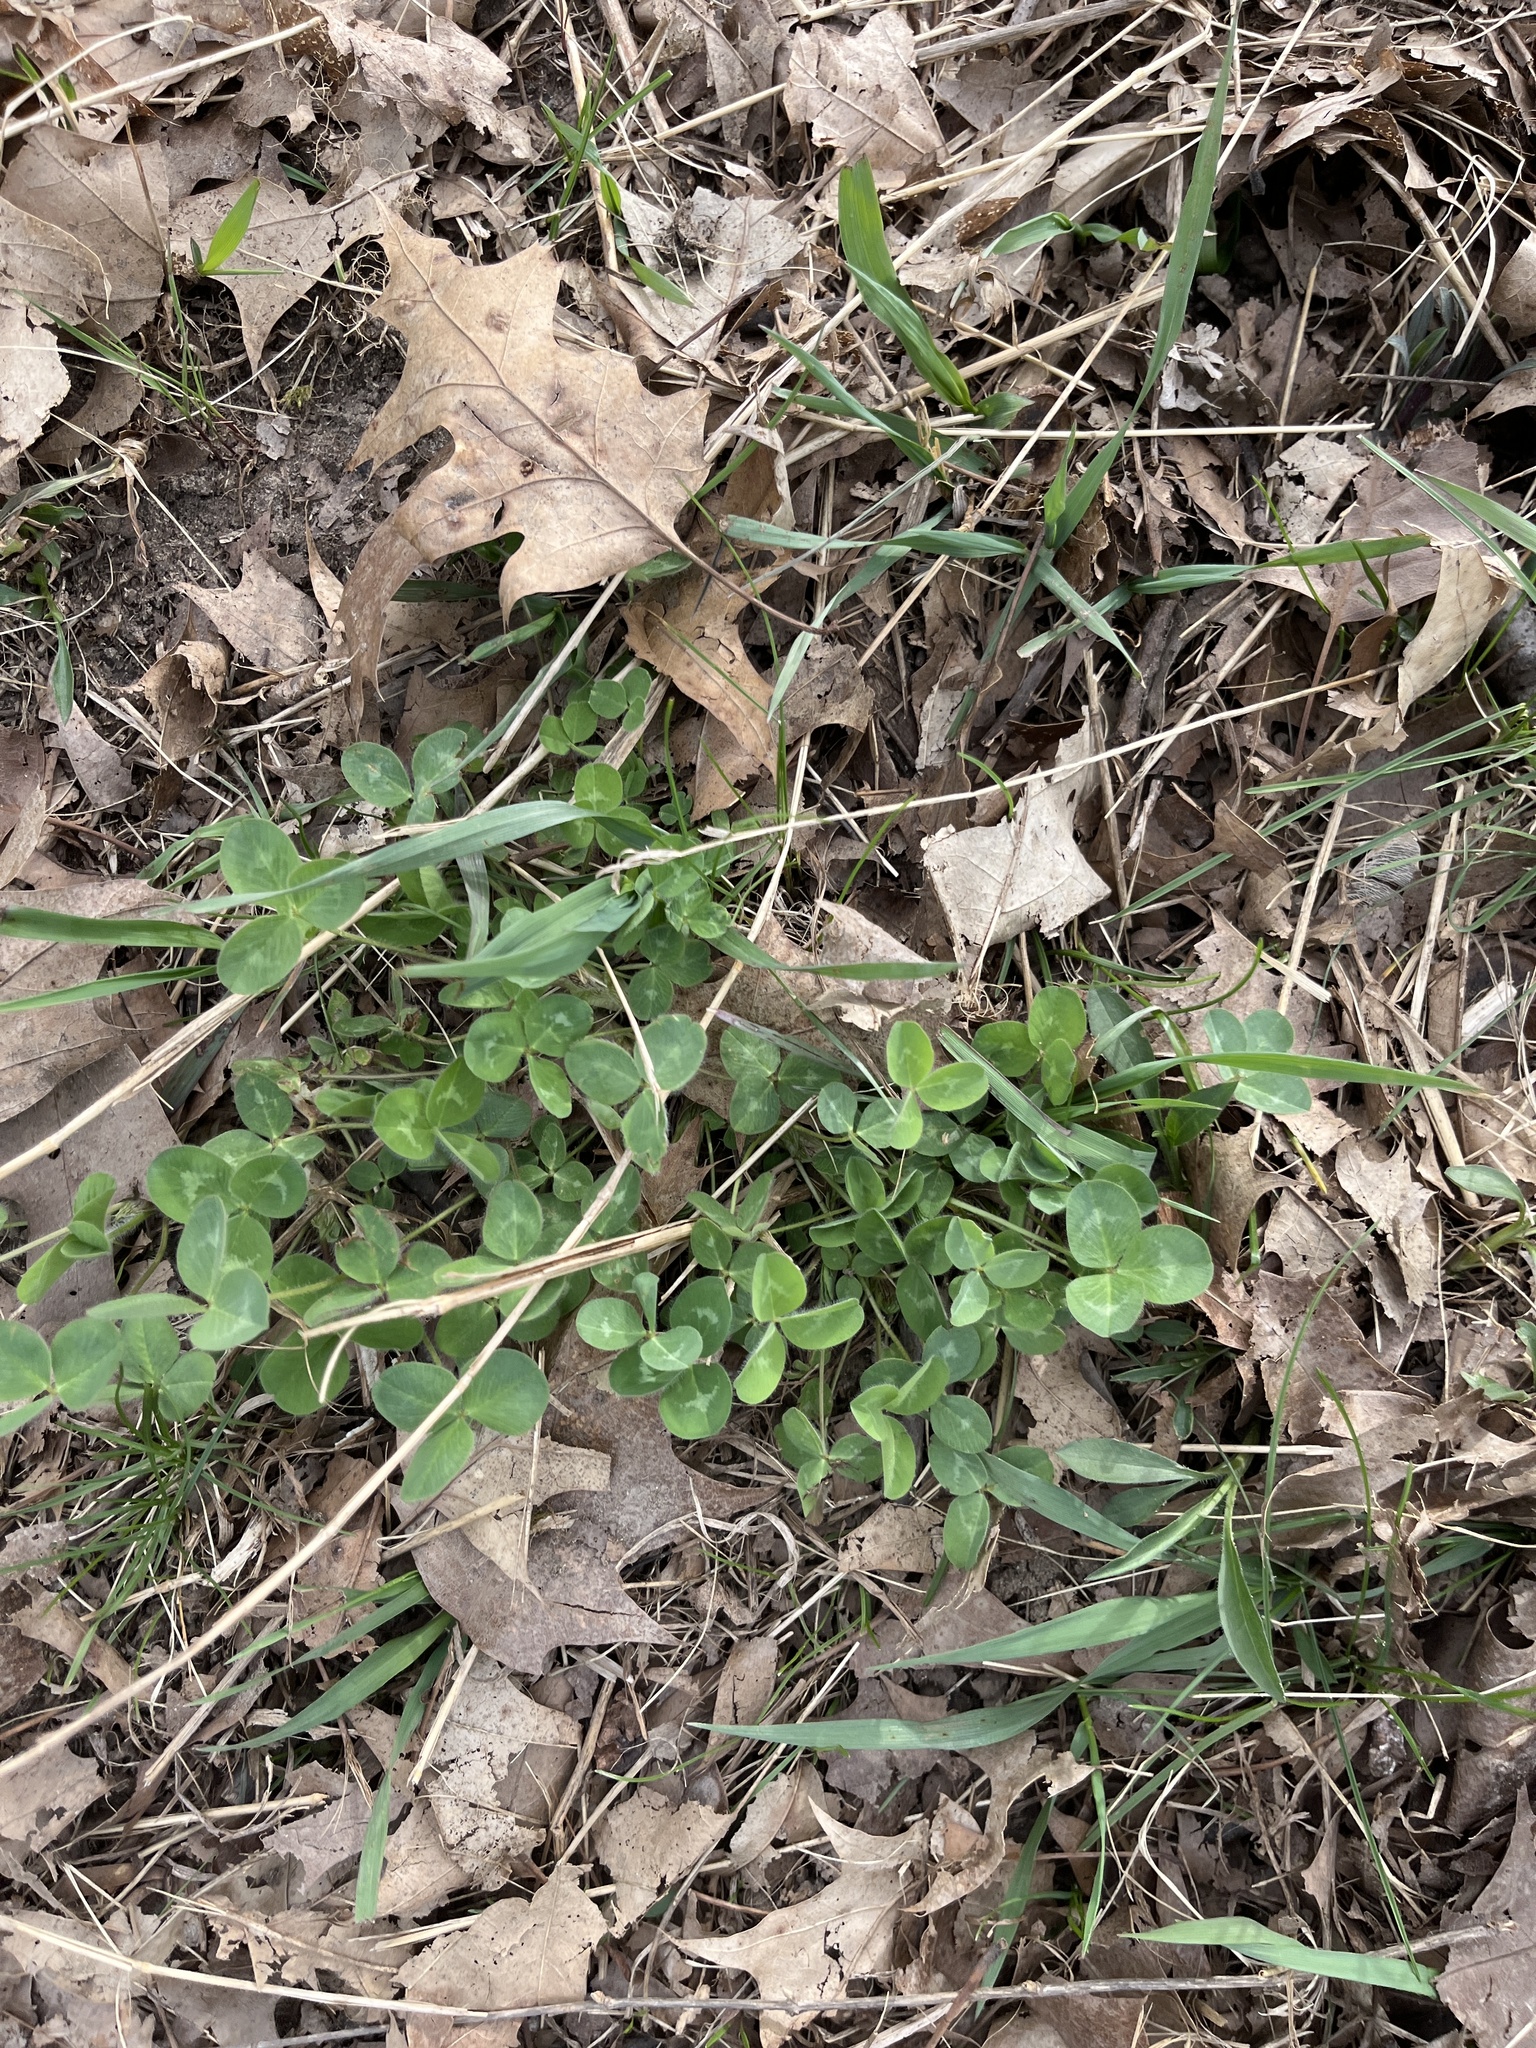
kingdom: Plantae
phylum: Tracheophyta
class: Magnoliopsida
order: Fabales
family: Fabaceae
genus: Trifolium
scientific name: Trifolium pratense
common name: Red clover
